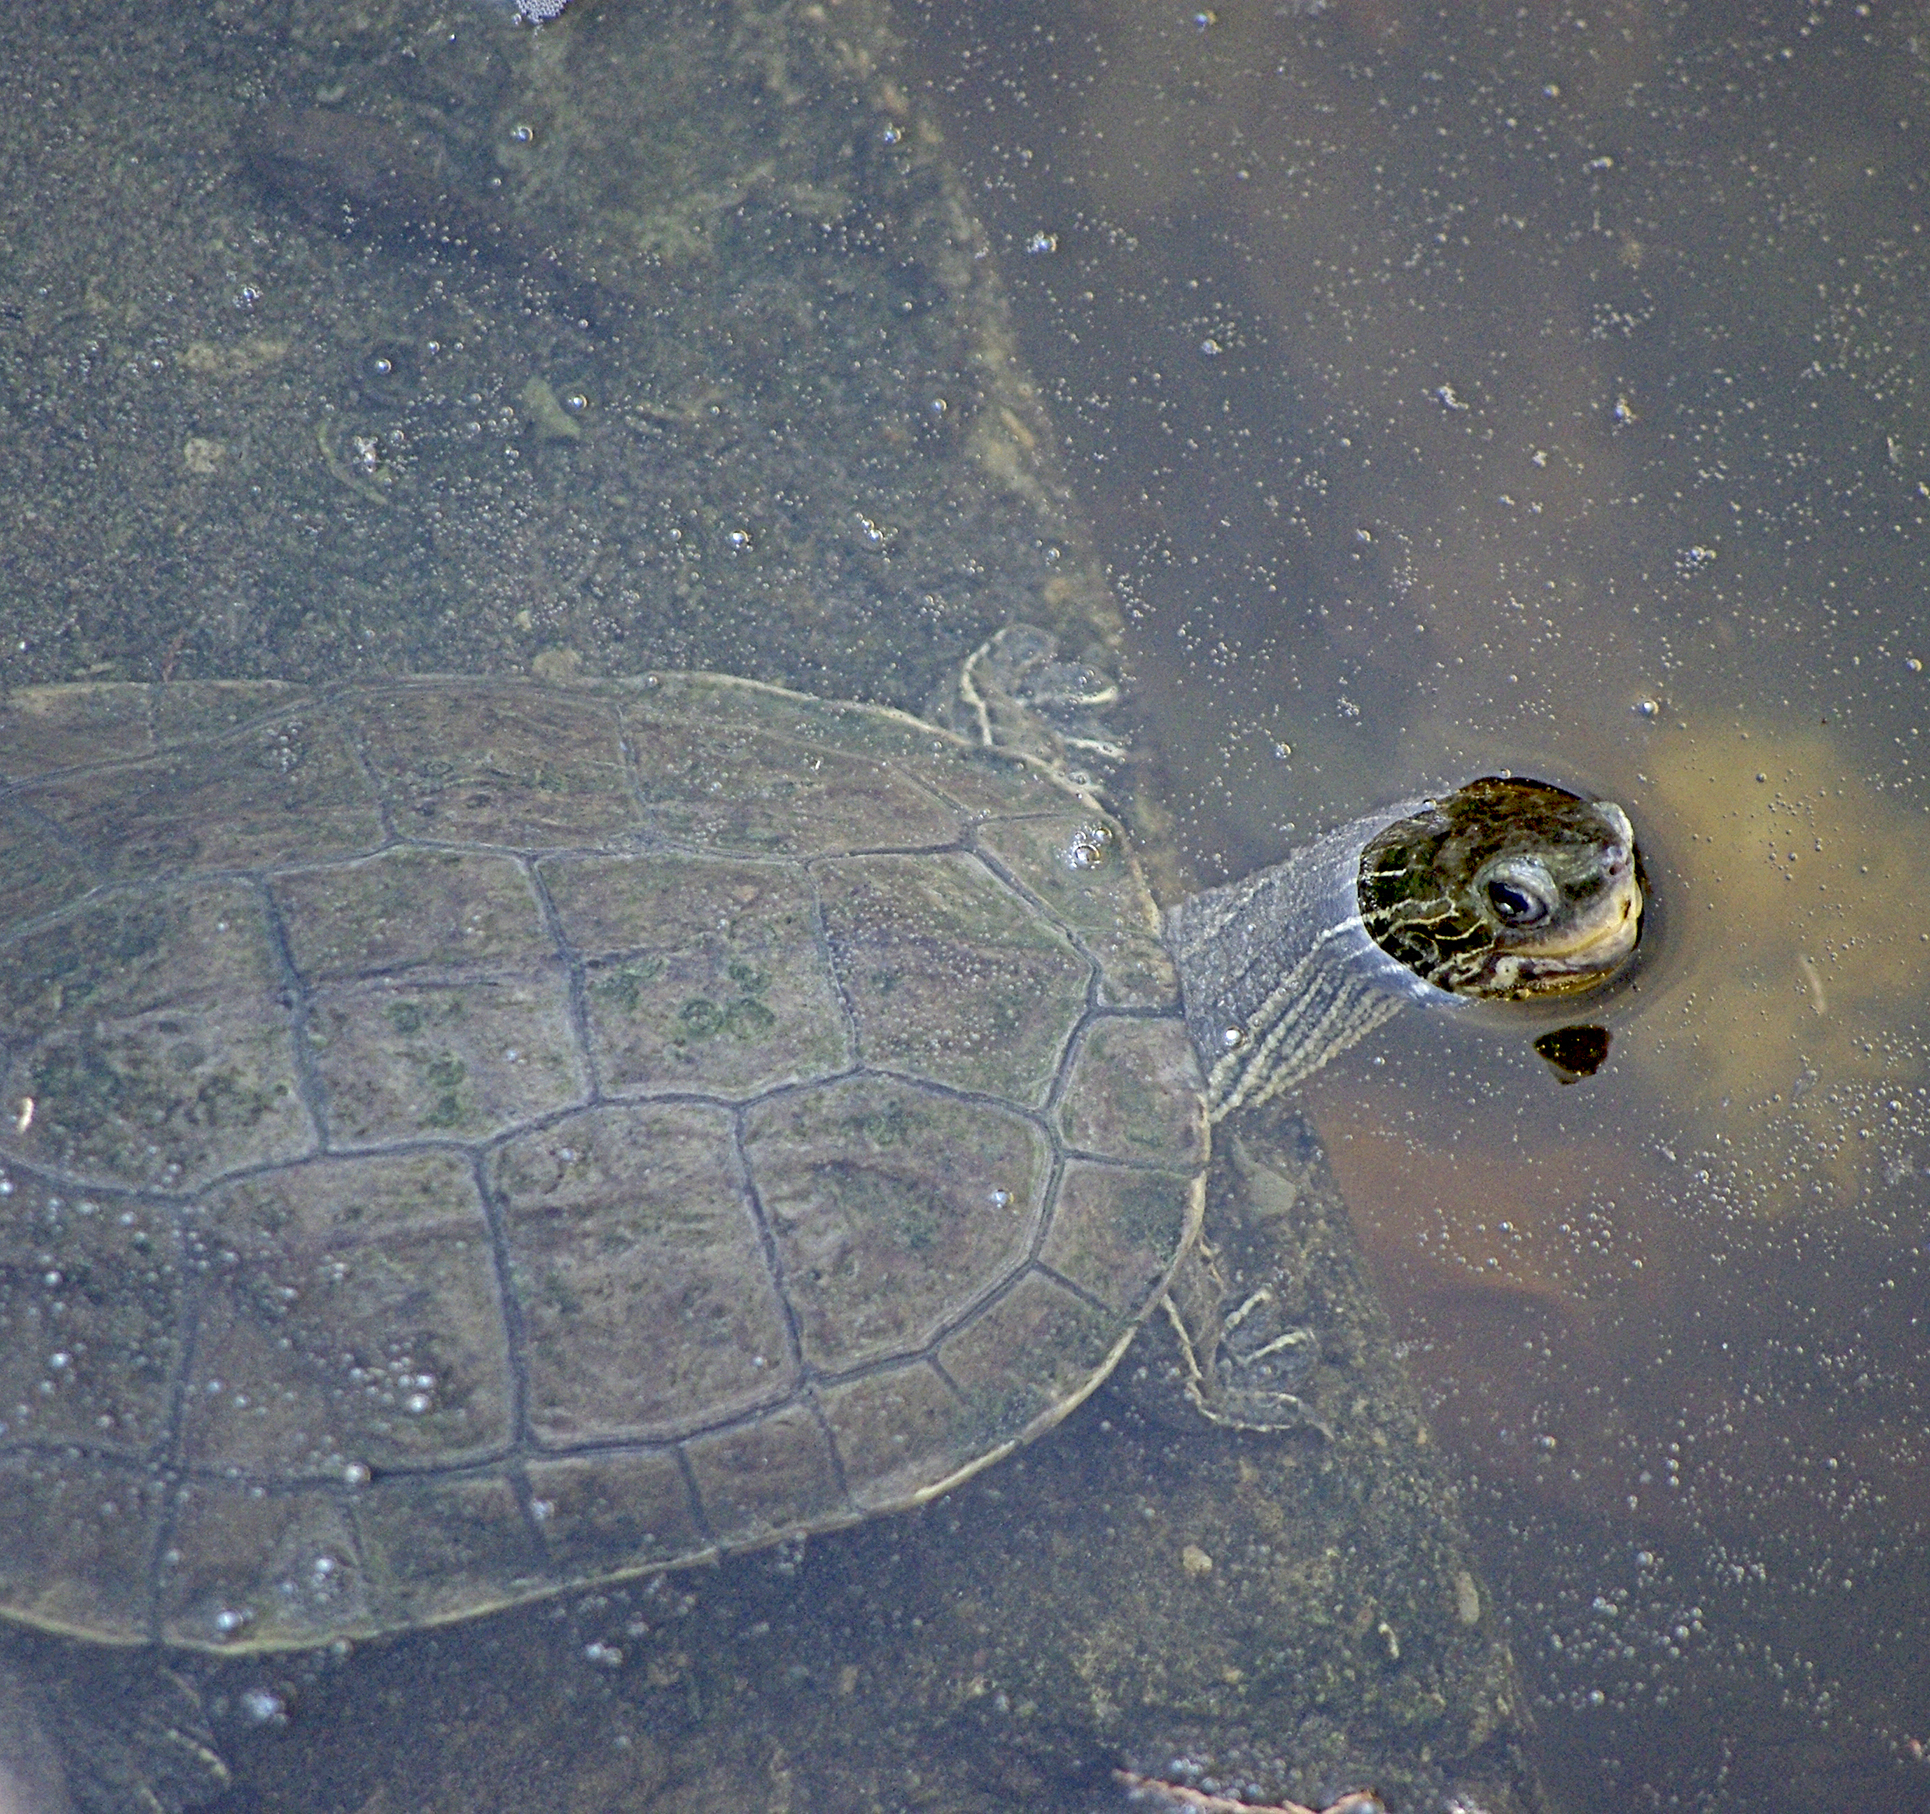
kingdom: Animalia
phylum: Chordata
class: Testudines
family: Geoemydidae
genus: Mauremys
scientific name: Mauremys rivulata
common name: Western caspian turtle
